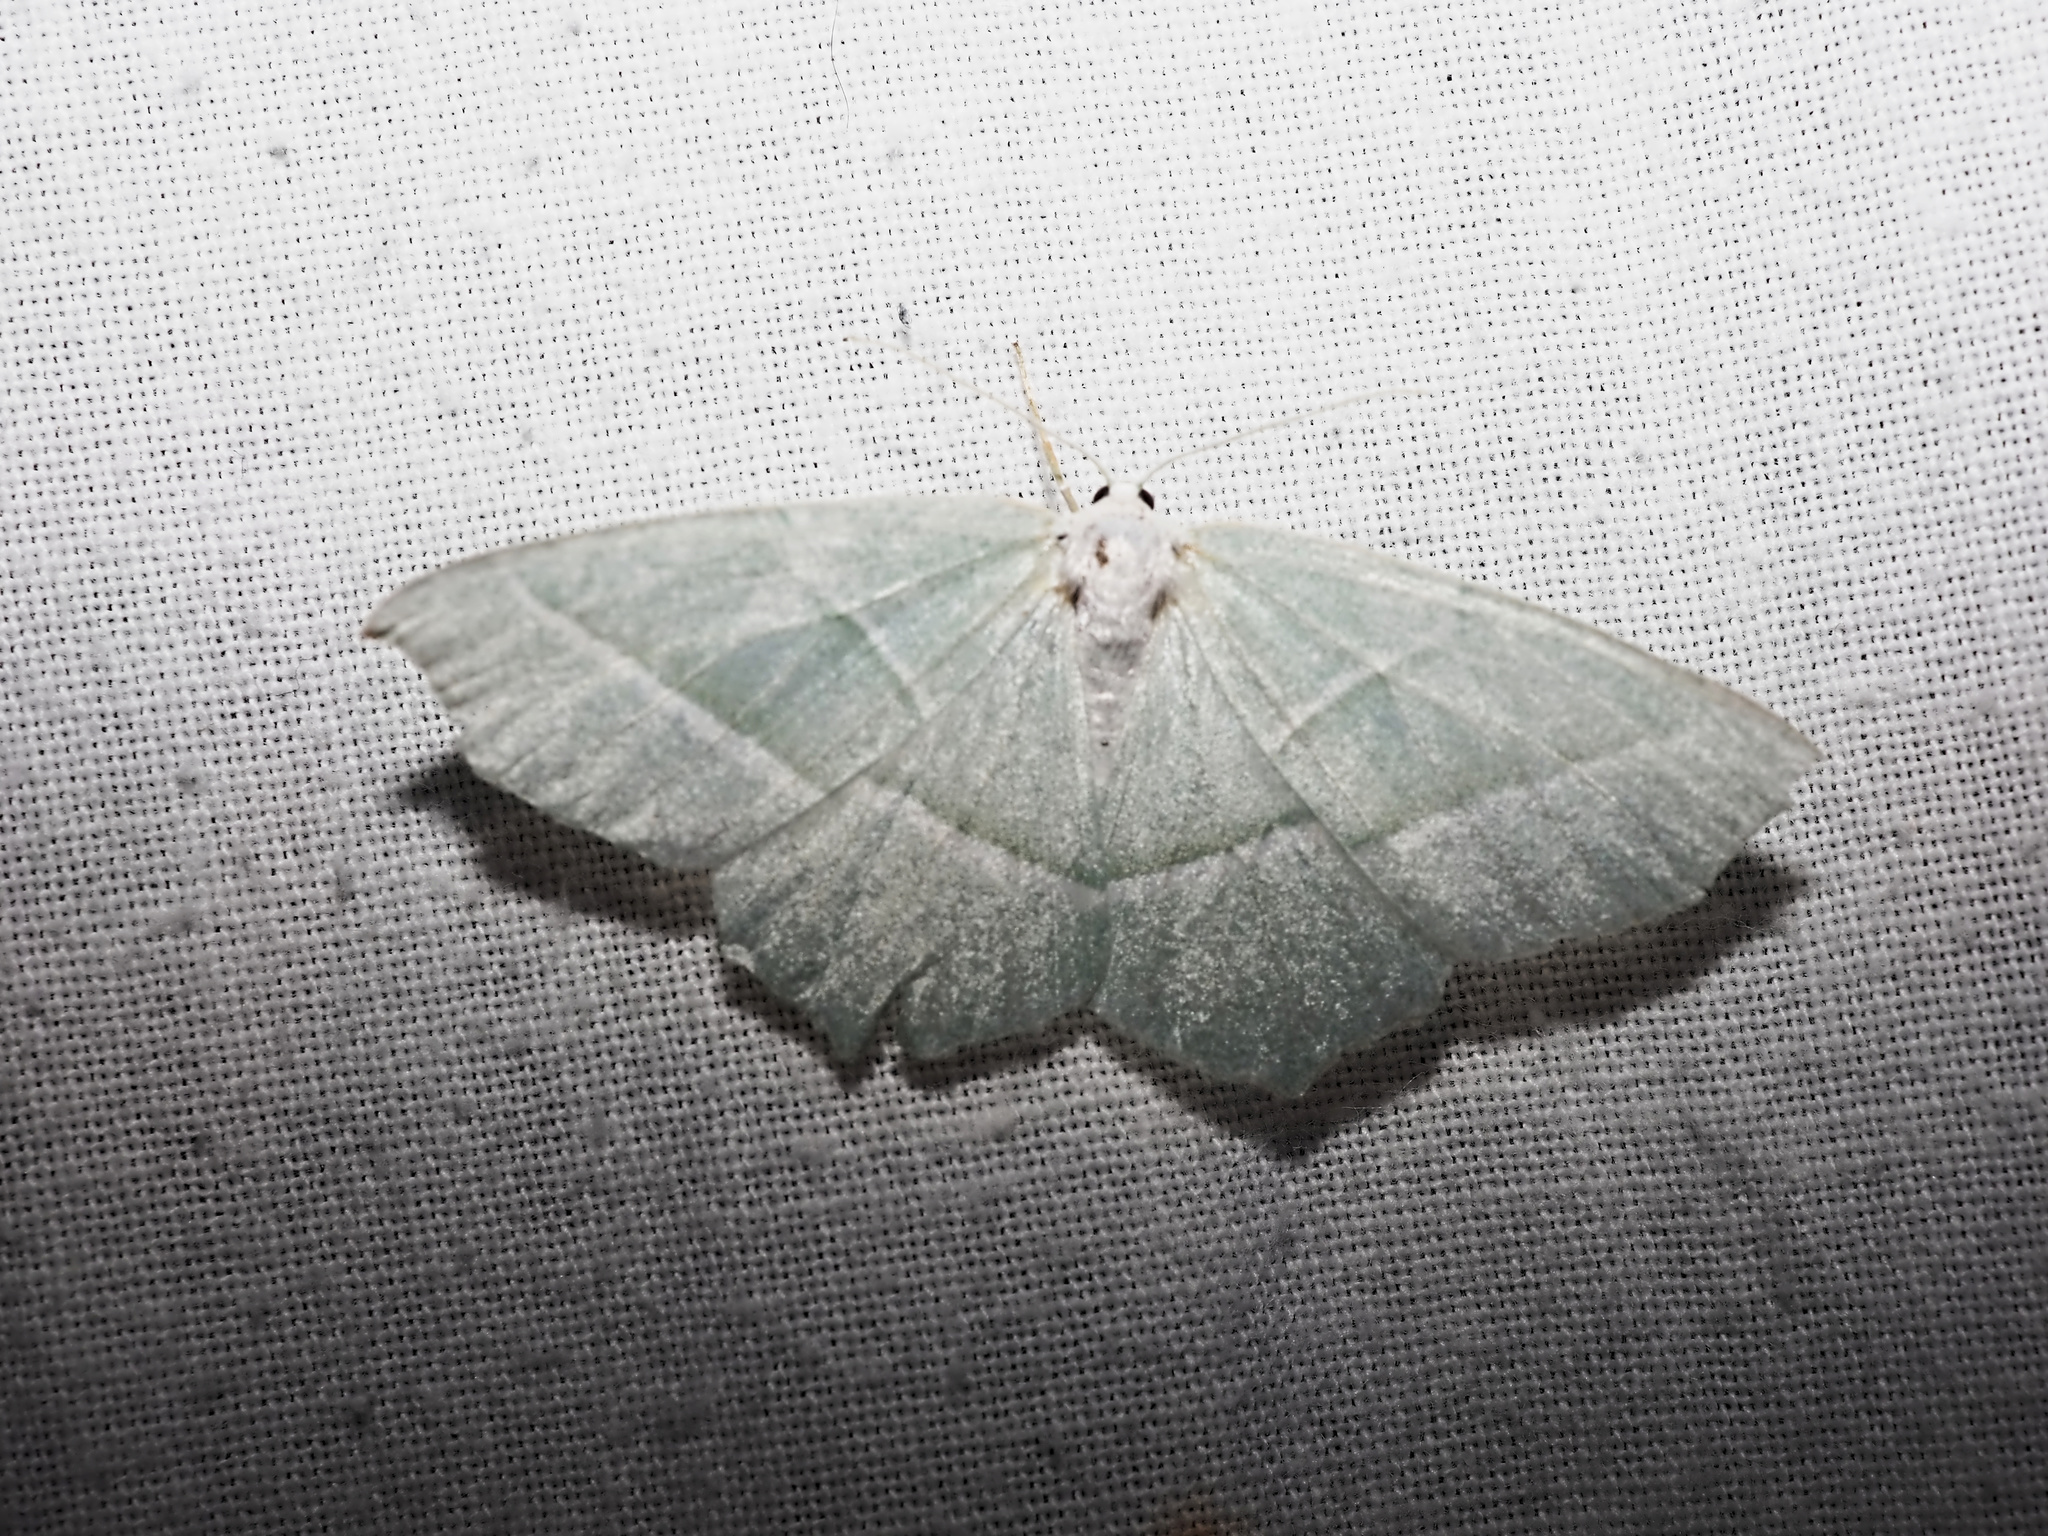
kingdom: Animalia
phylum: Arthropoda
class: Insecta
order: Lepidoptera
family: Geometridae
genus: Campaea
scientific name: Campaea margaritaria
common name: Light emerald
